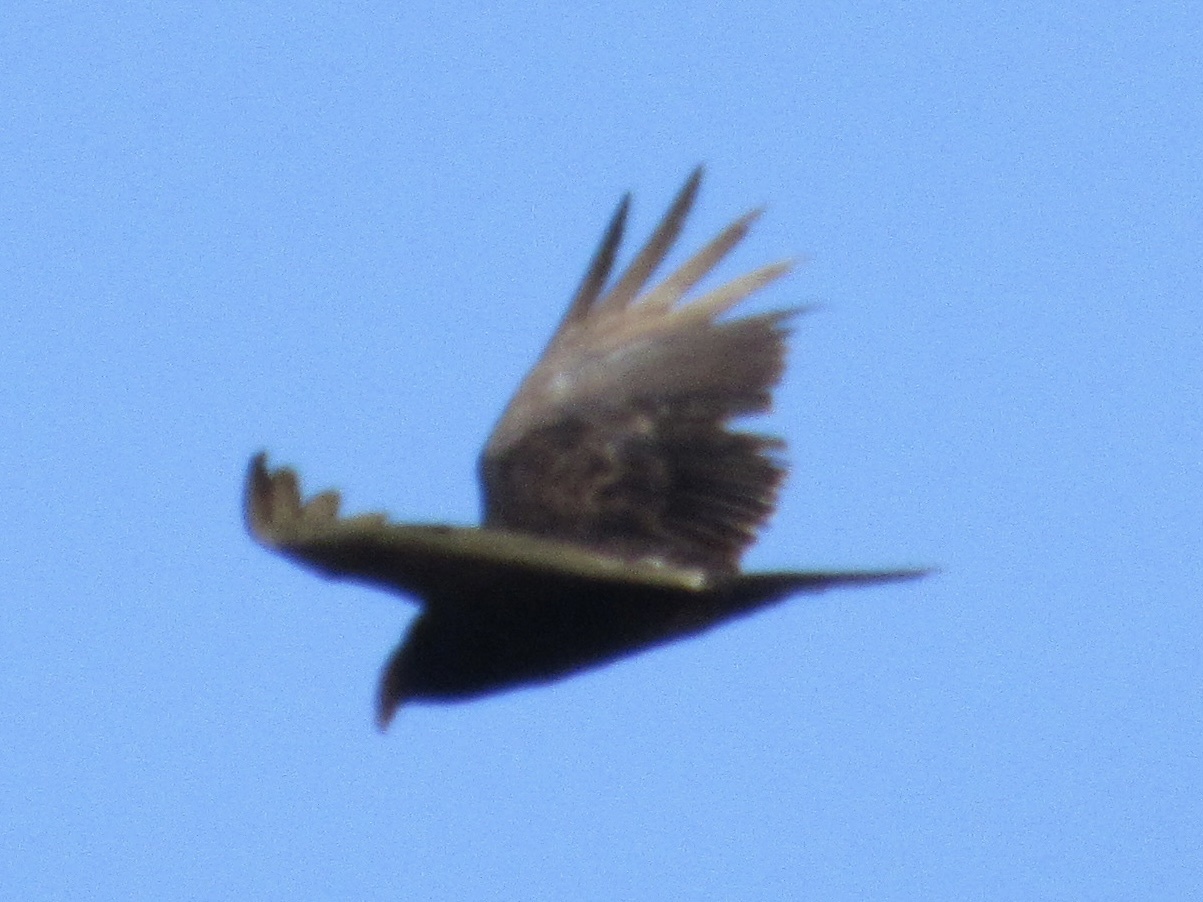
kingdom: Animalia
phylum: Chordata
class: Aves
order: Accipitriformes
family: Cathartidae
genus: Cathartes
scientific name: Cathartes aura
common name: Turkey vulture
